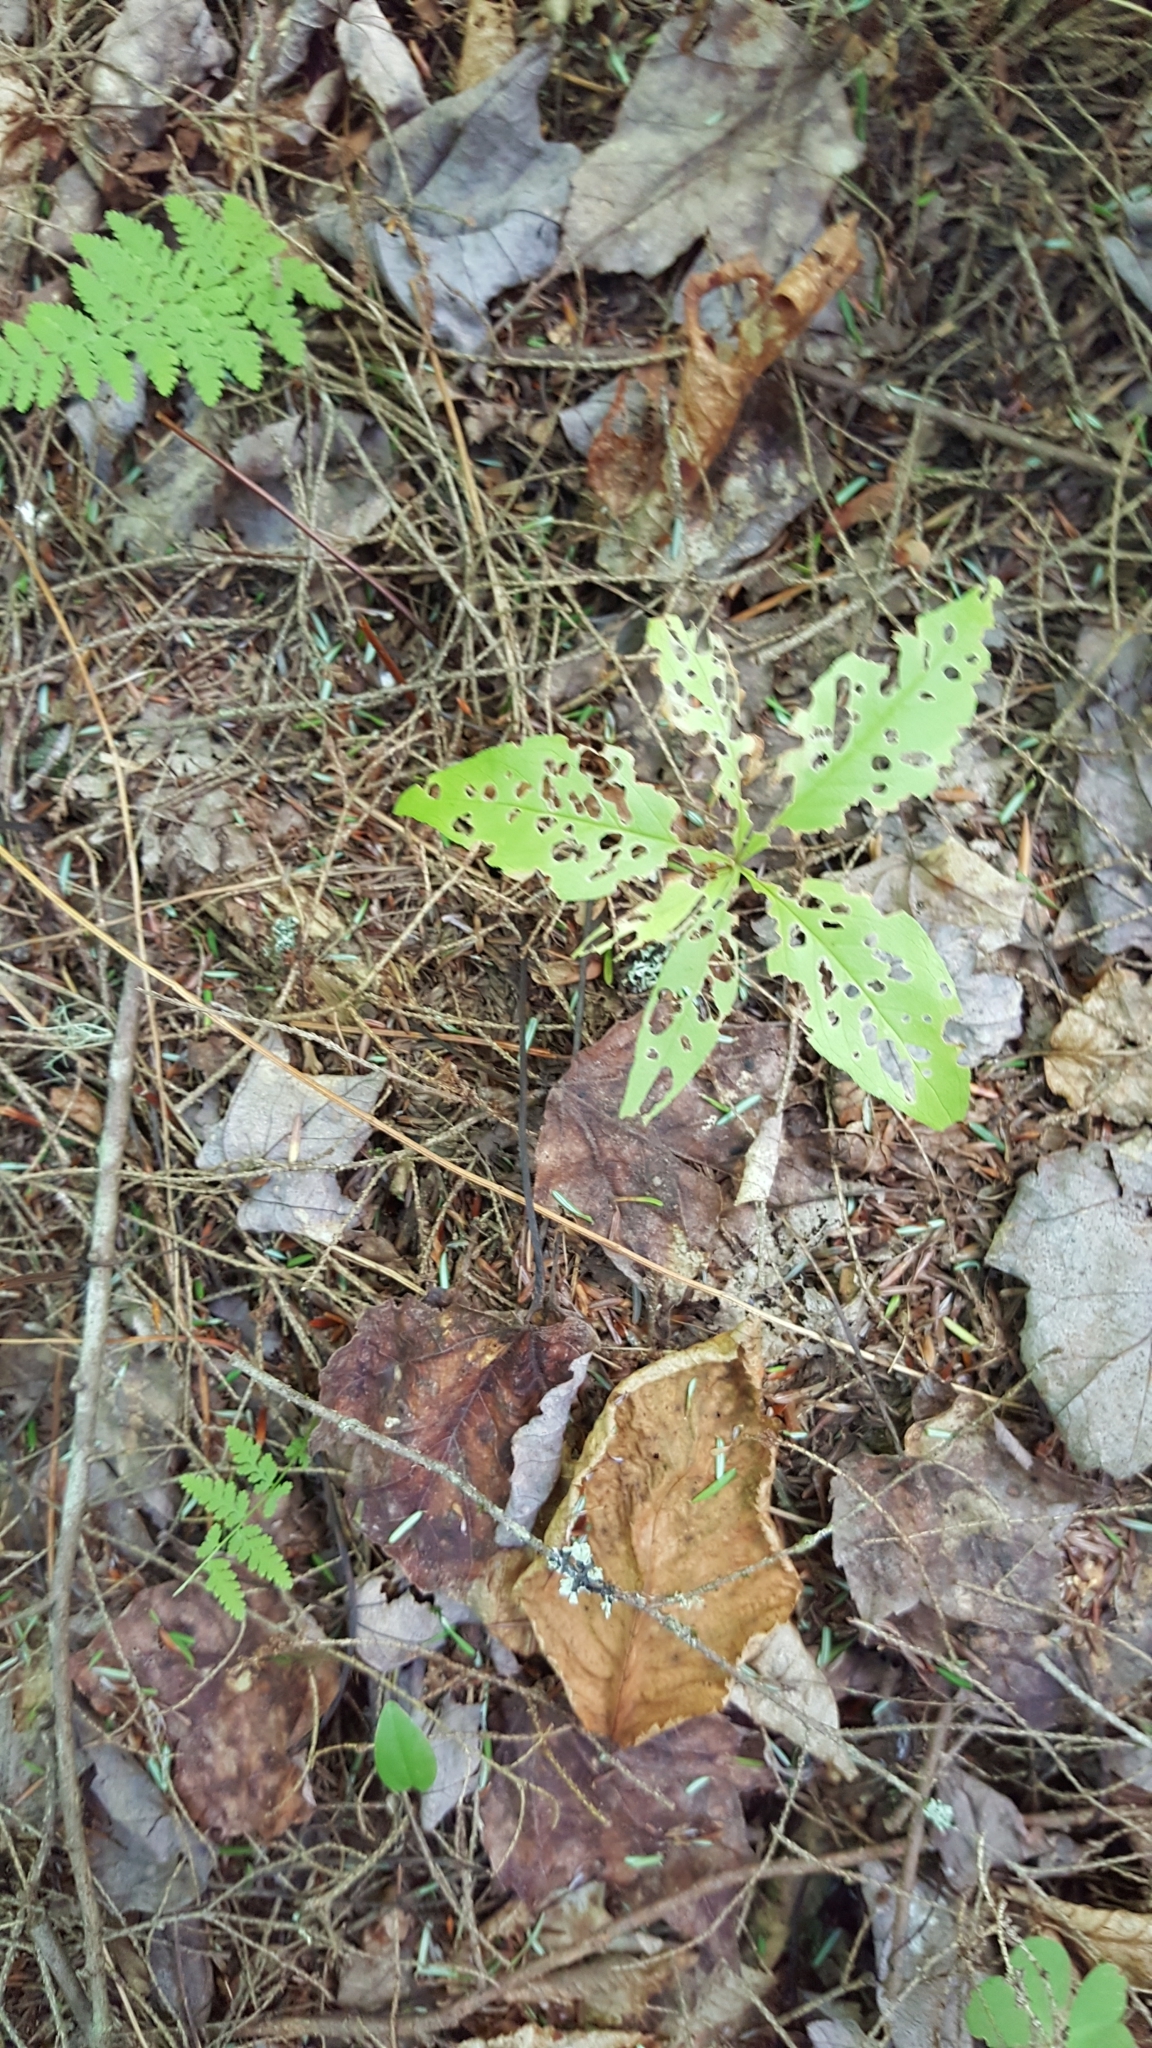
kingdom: Plantae
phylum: Tracheophyta
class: Magnoliopsida
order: Ericales
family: Primulaceae
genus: Lysimachia
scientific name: Lysimachia borealis
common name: American starflower
